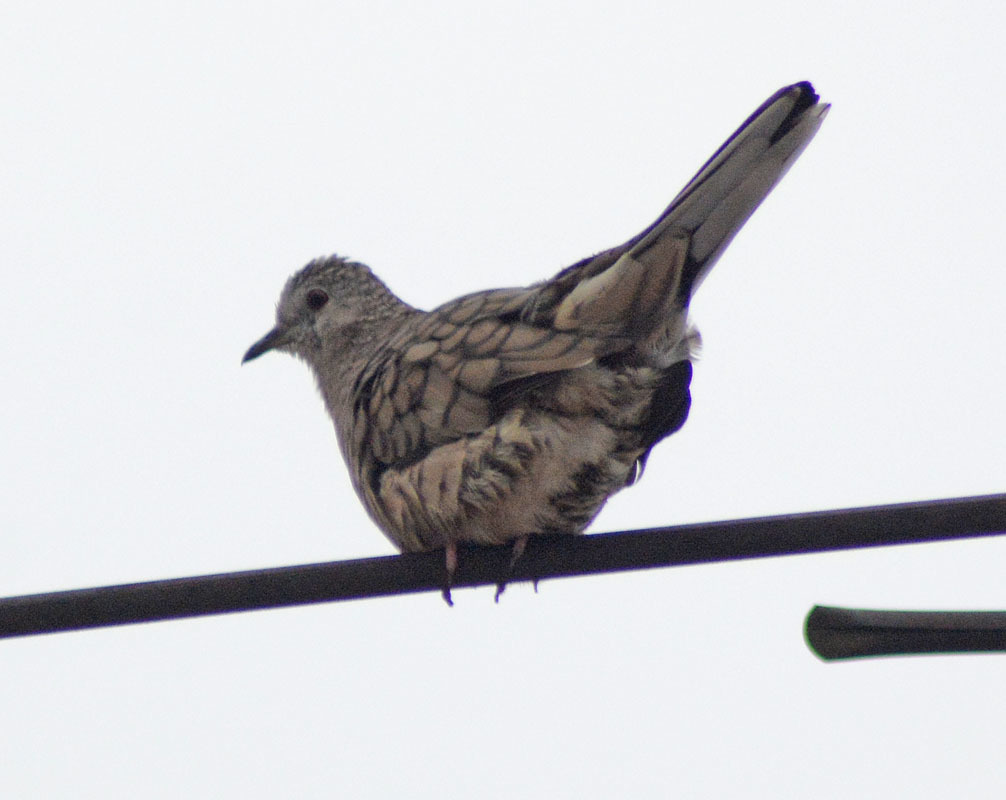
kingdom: Animalia
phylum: Chordata
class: Aves
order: Columbiformes
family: Columbidae
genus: Columbina
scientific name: Columbina inca
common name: Inca dove
